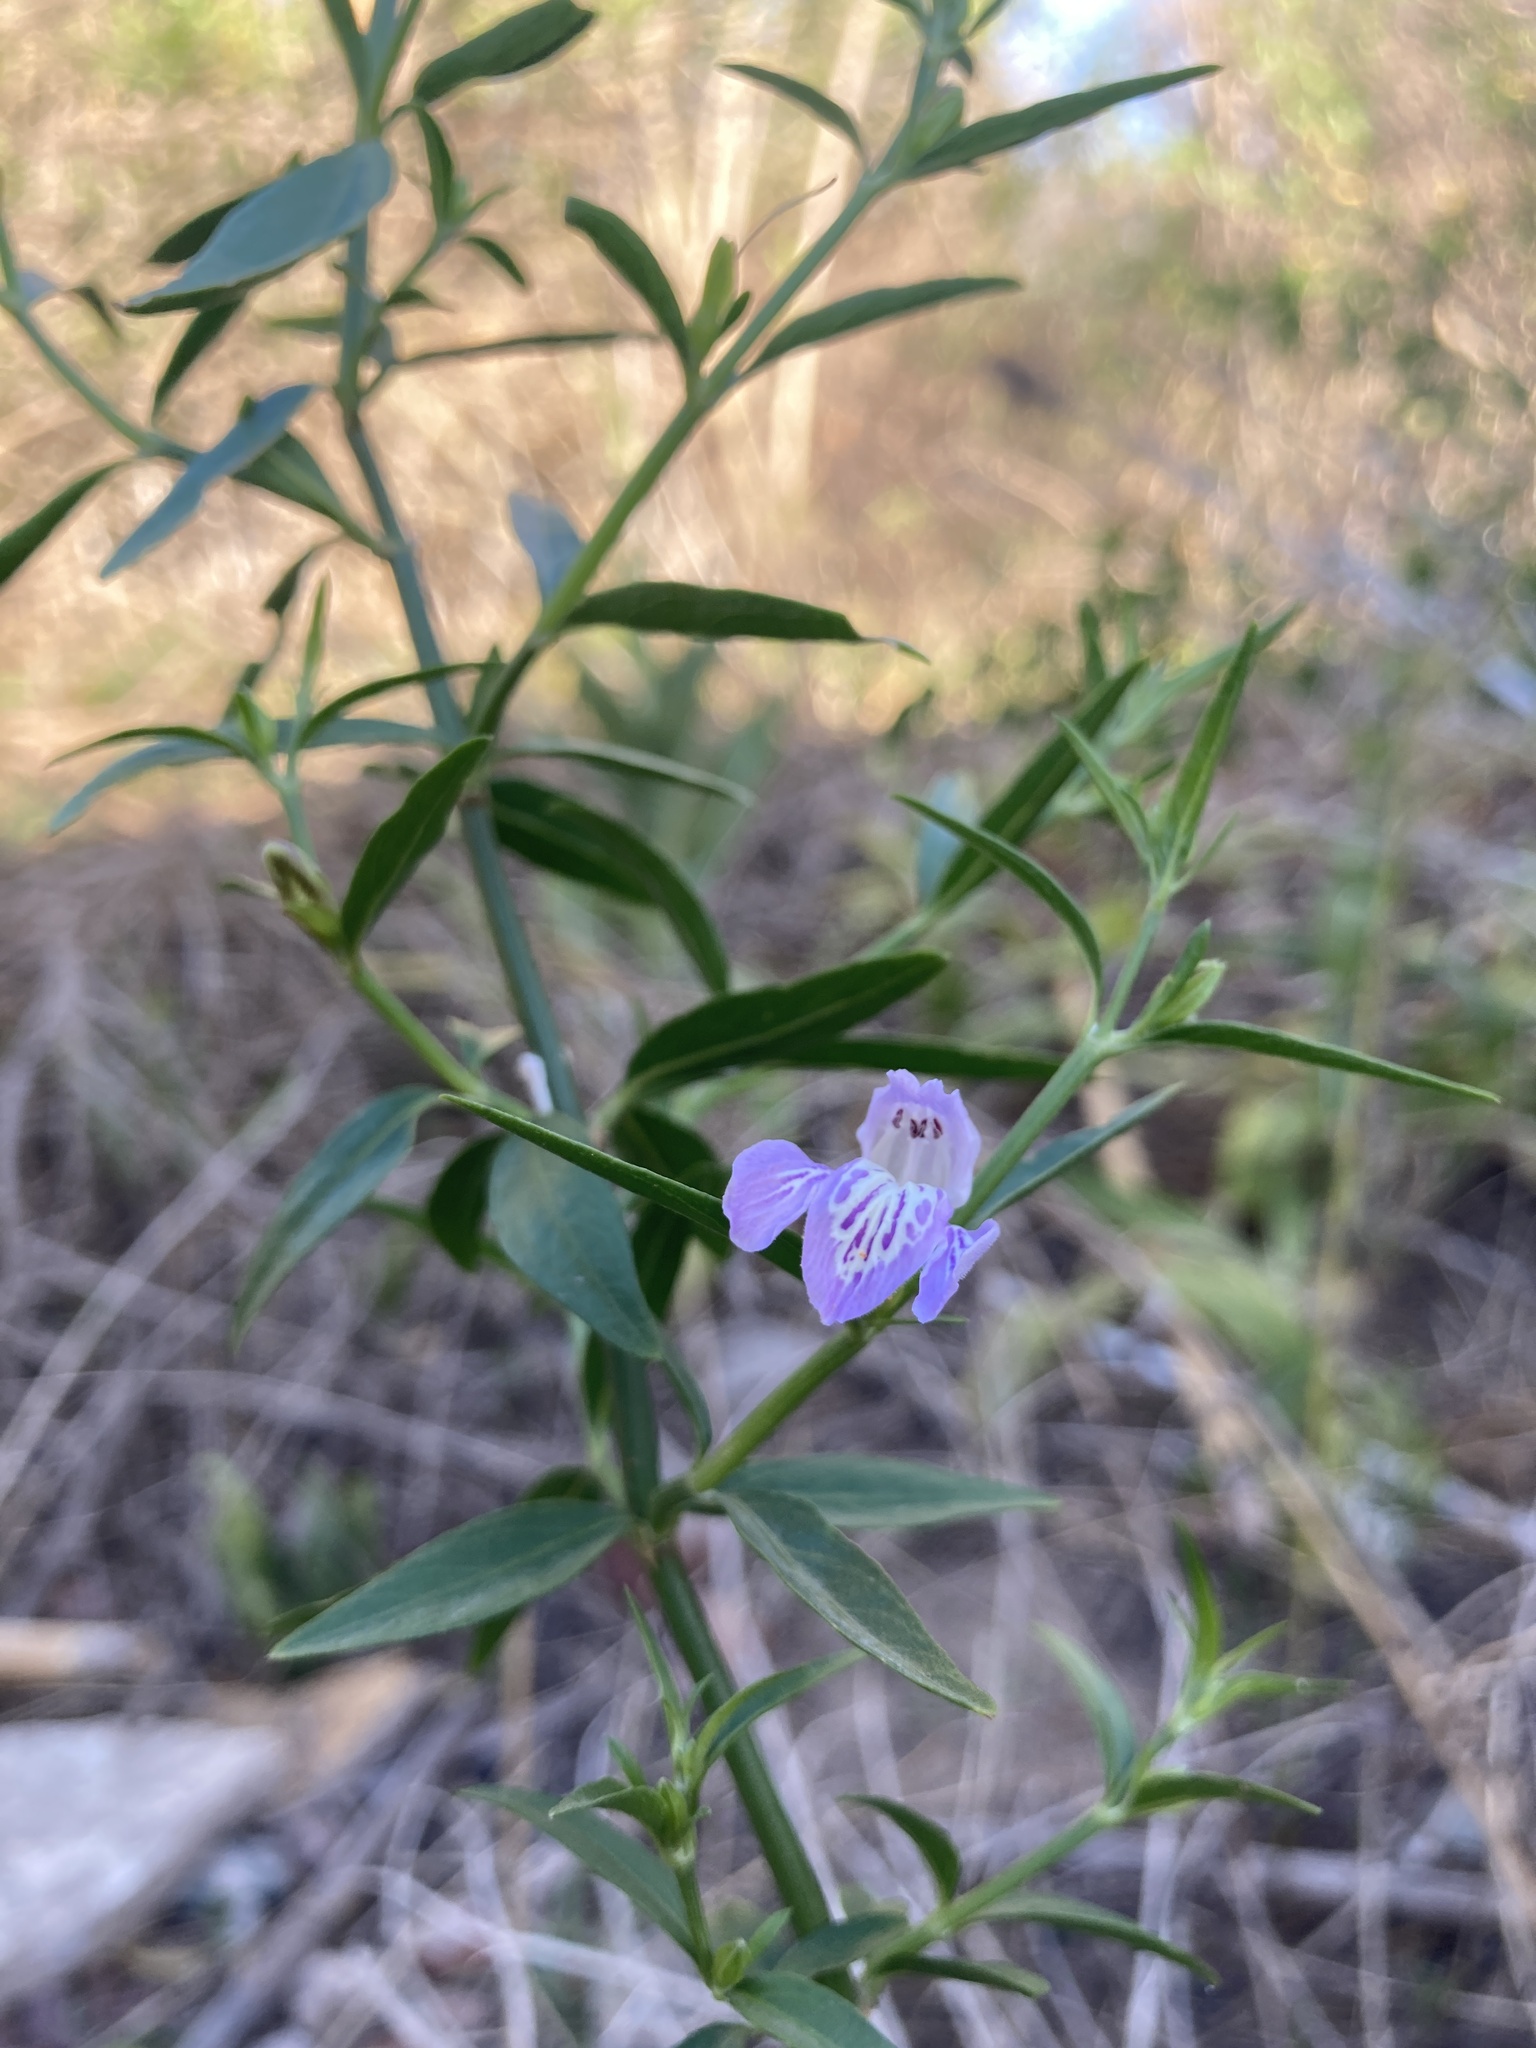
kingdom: Plantae
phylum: Tracheophyta
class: Magnoliopsida
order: Lamiales
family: Acanthaceae
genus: Poikilacanthus
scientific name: Poikilacanthus tweedianus
